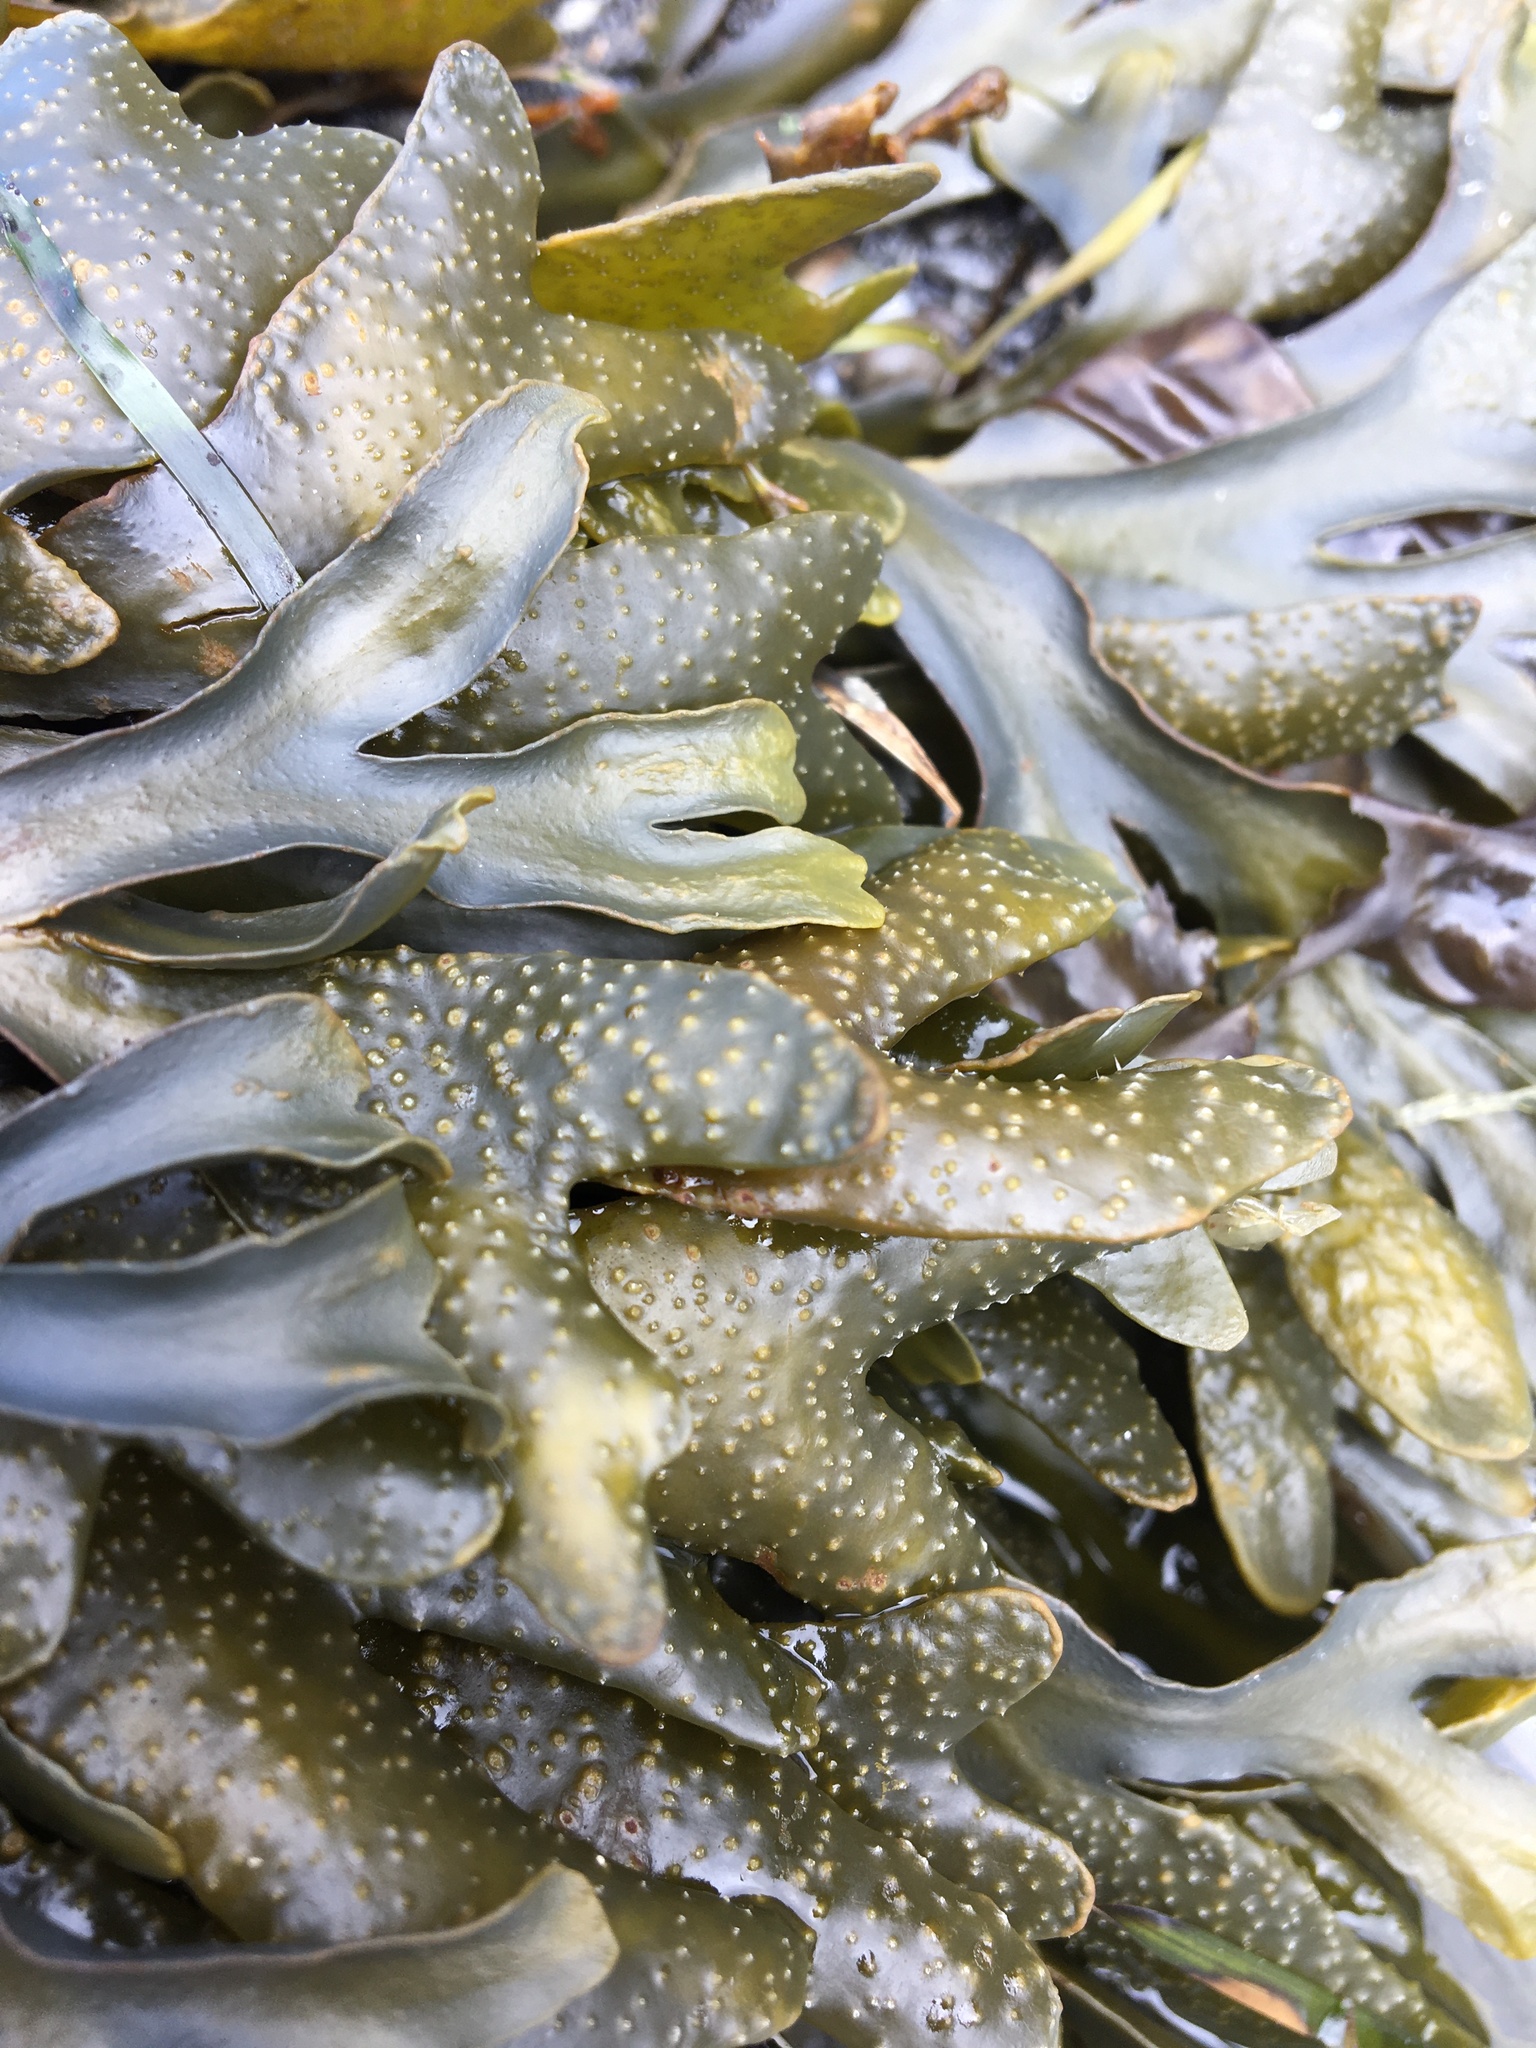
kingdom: Chromista
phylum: Ochrophyta
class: Phaeophyceae
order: Fucales
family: Fucaceae
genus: Fucus
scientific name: Fucus distichus
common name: Rockweed
